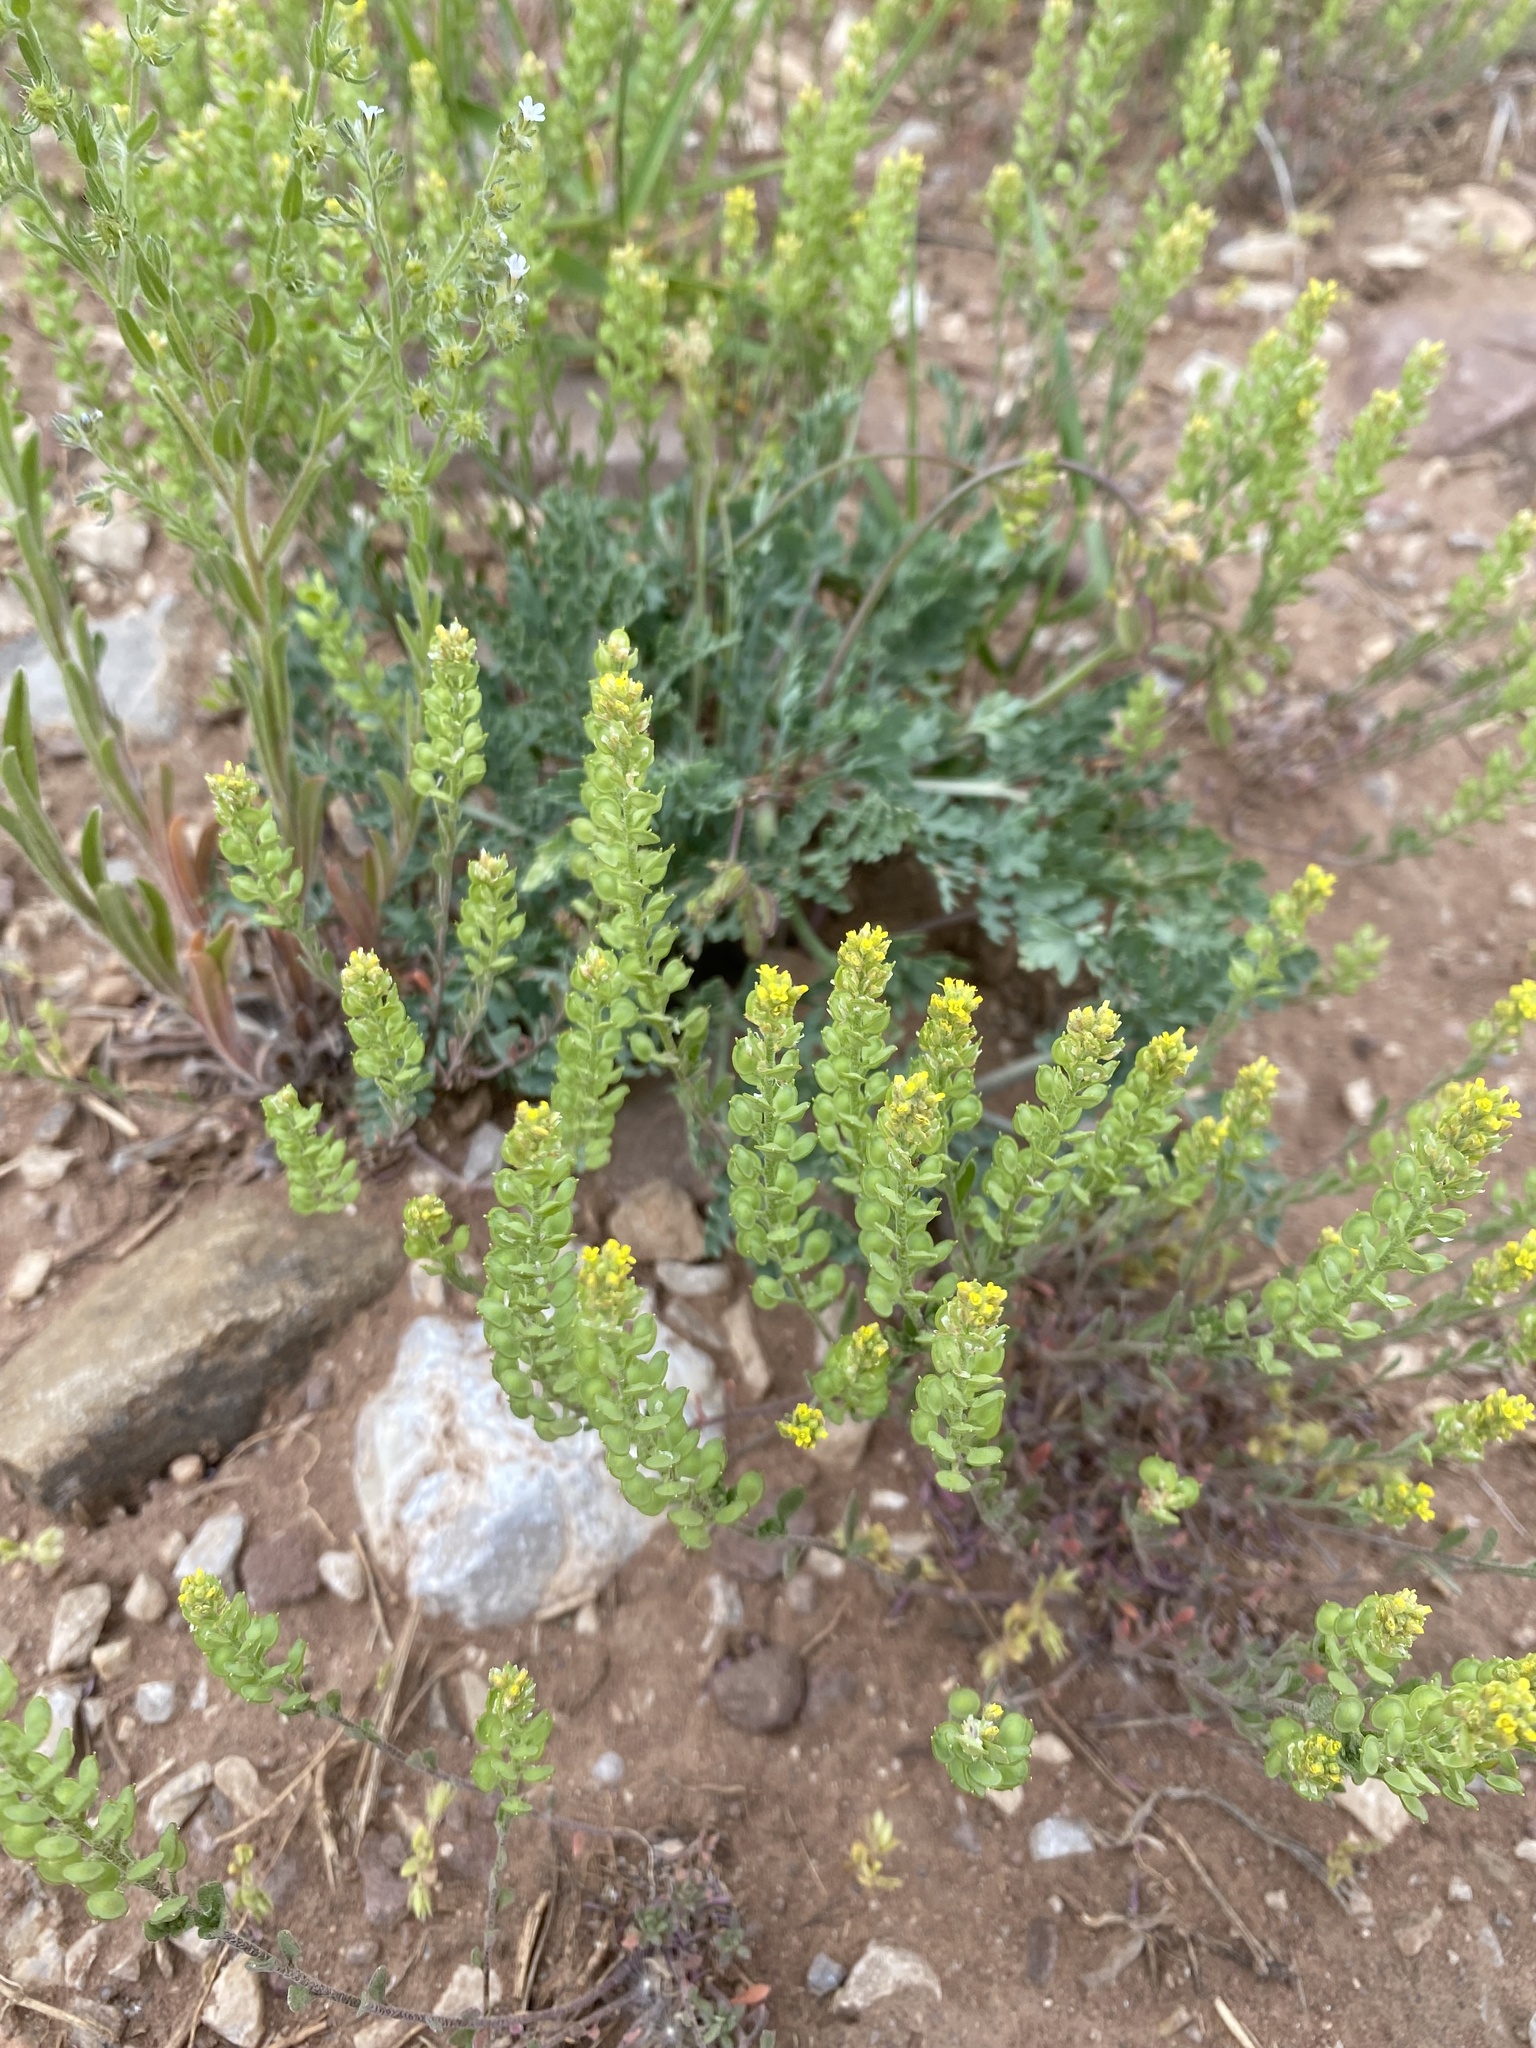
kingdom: Plantae
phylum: Tracheophyta
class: Magnoliopsida
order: Brassicales
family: Brassicaceae
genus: Alyssum
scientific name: Alyssum turkestanicum
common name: Desert alyssum
